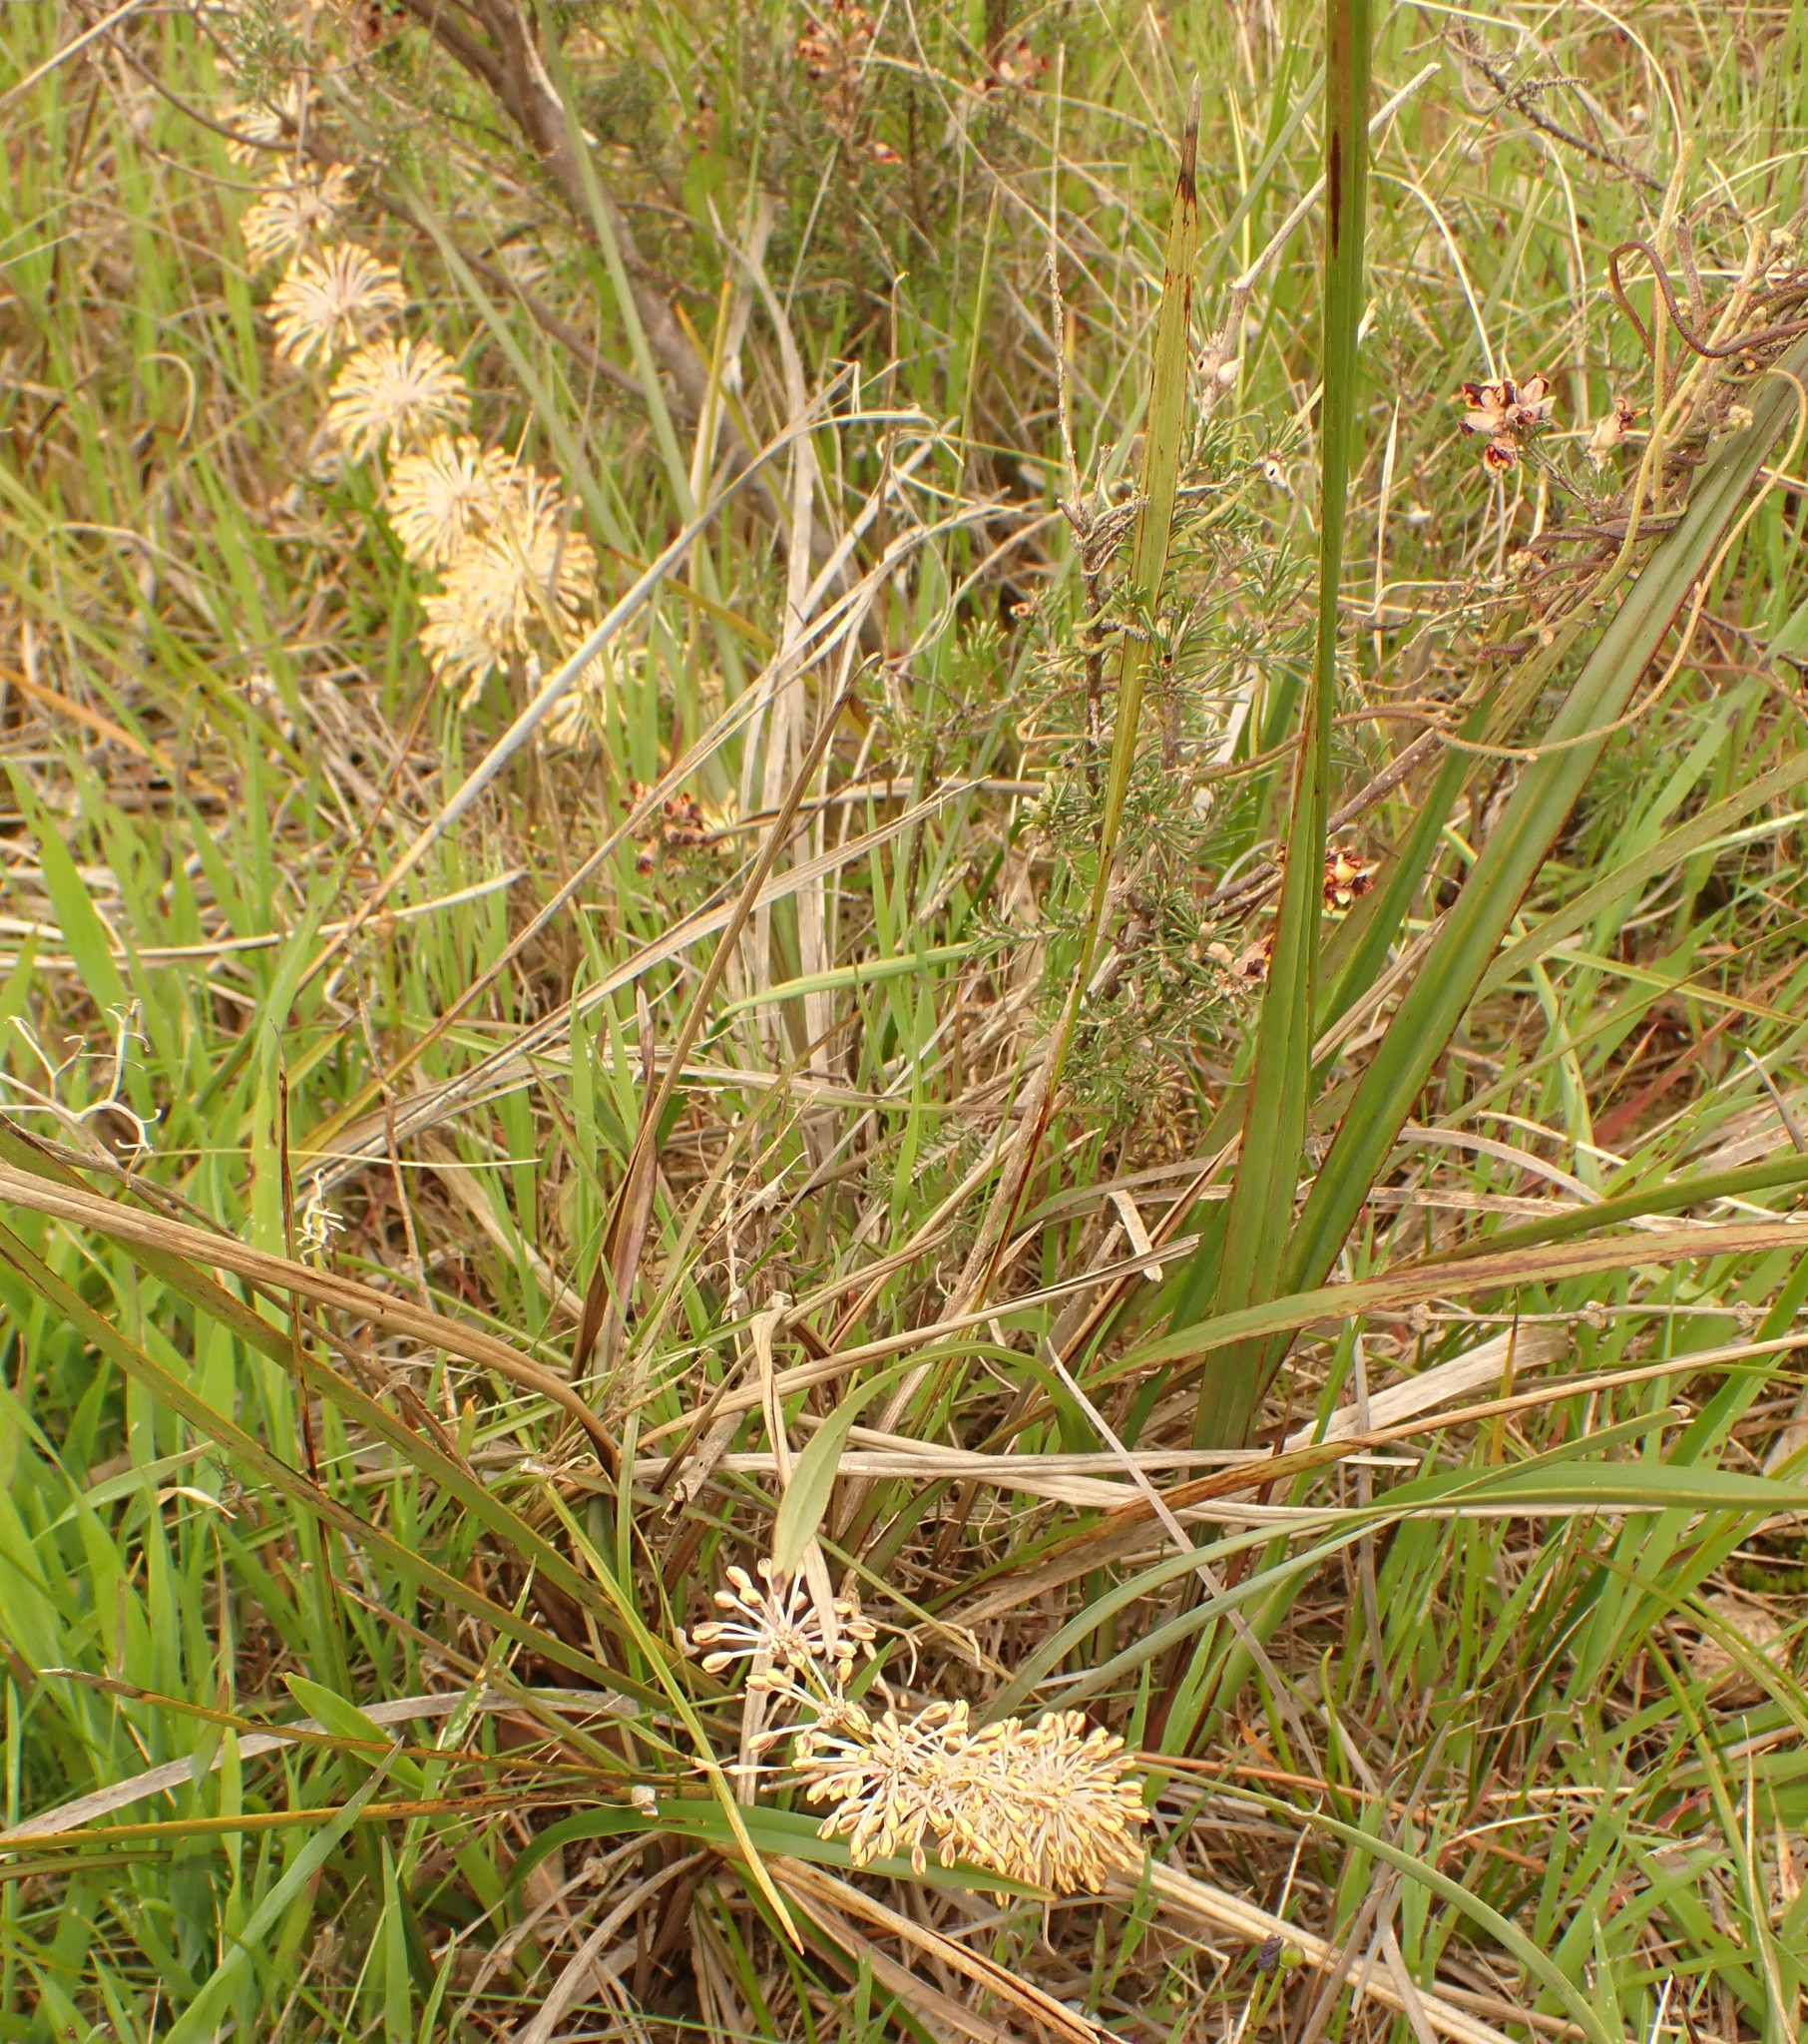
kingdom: Plantae
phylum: Tracheophyta
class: Liliopsida
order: Asparagales
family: Asparagaceae
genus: Lomandra
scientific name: Lomandra multiflora
